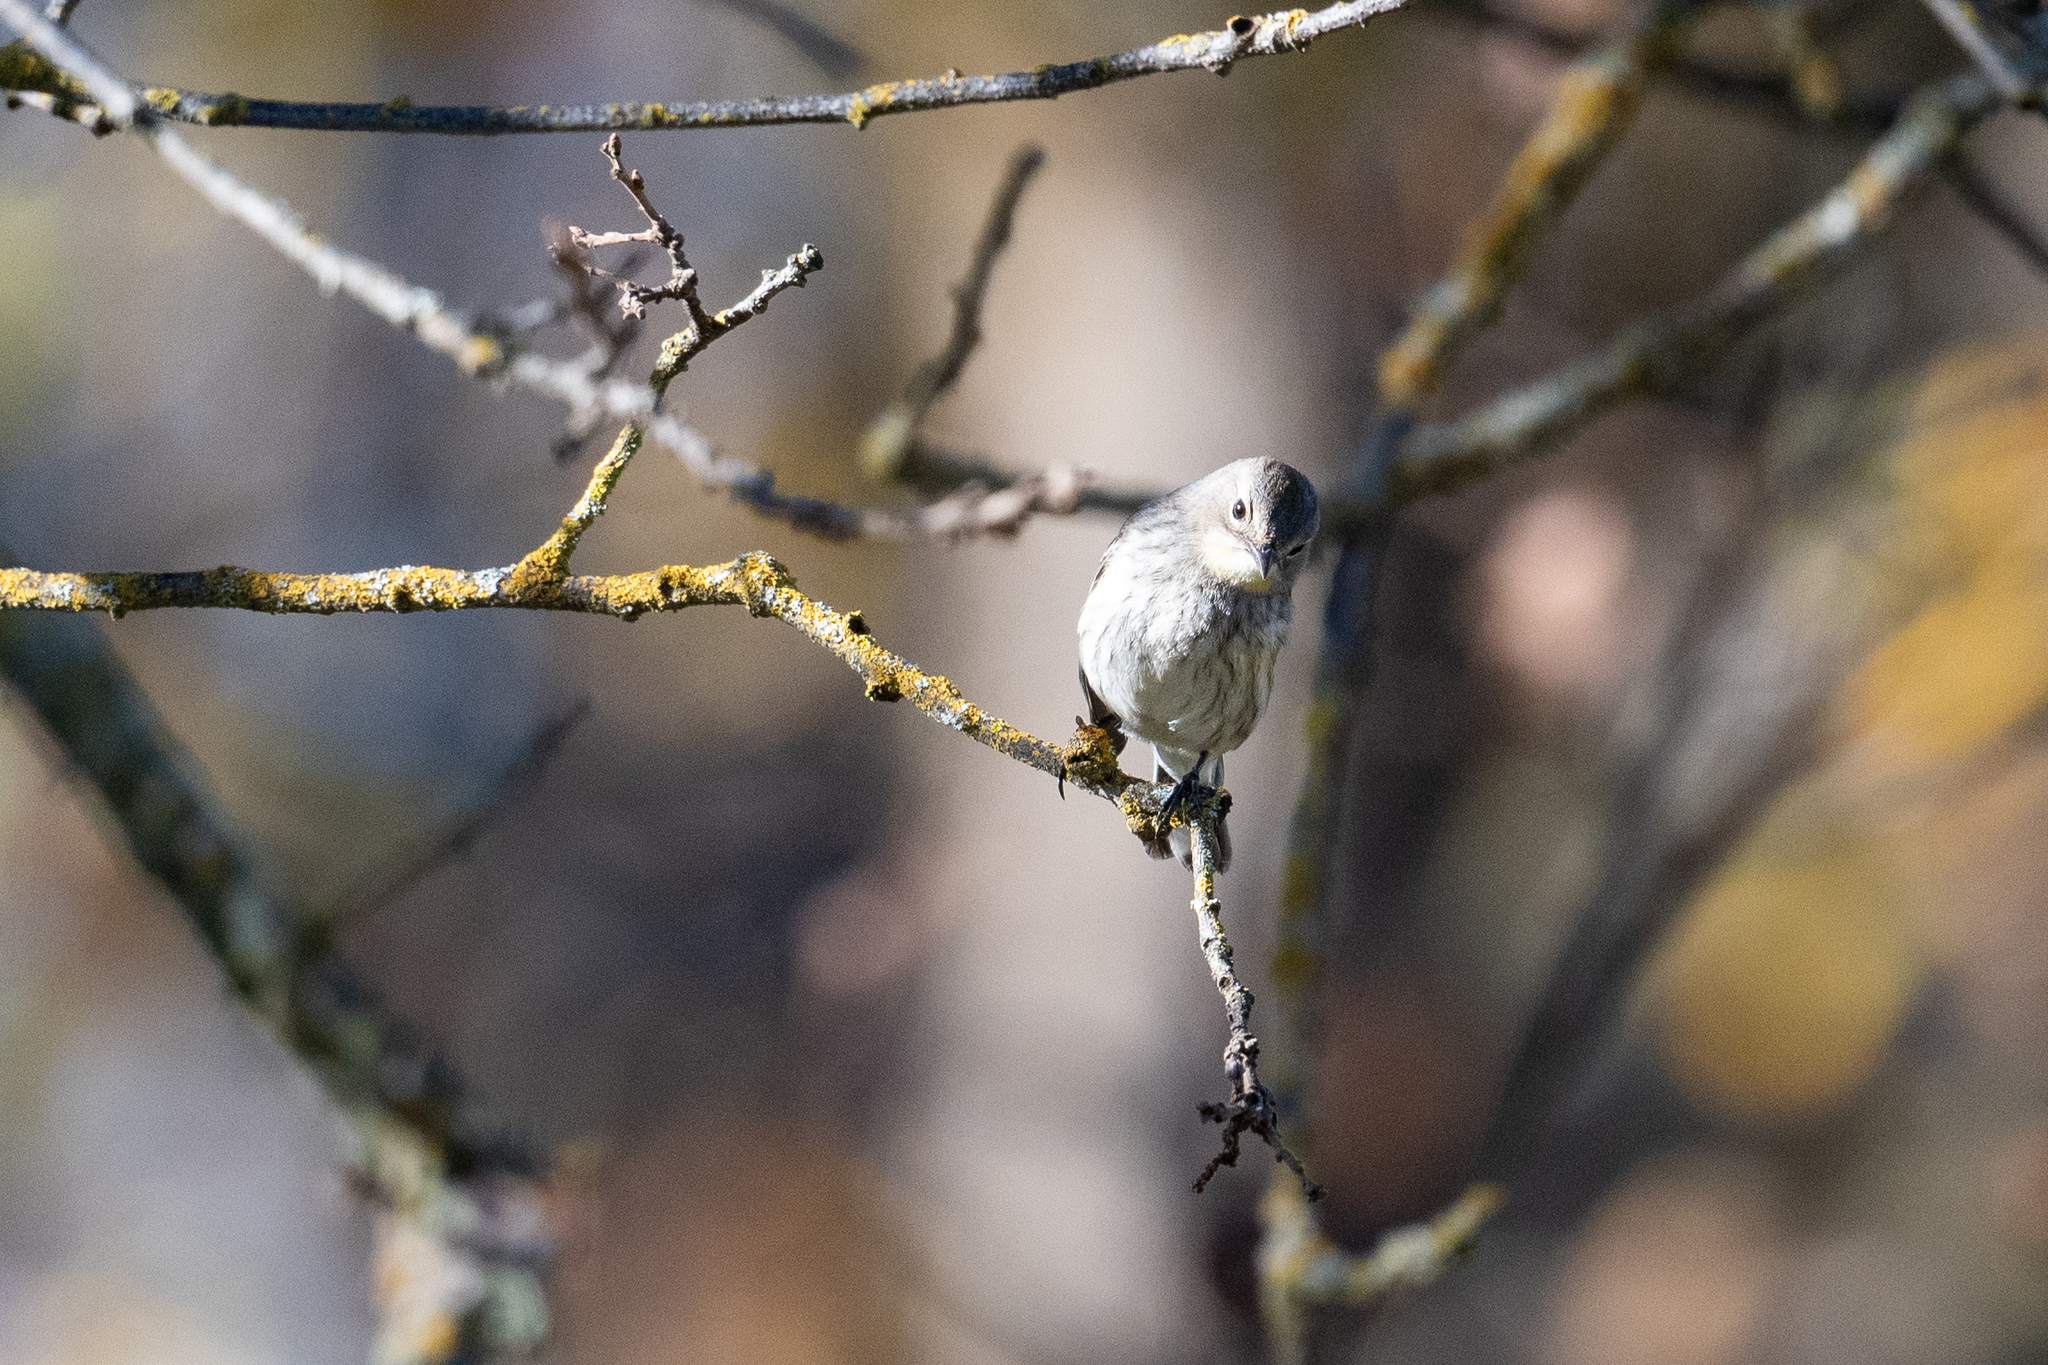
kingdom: Animalia
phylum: Chordata
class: Aves
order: Passeriformes
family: Parulidae
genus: Setophaga
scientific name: Setophaga coronata
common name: Myrtle warbler
